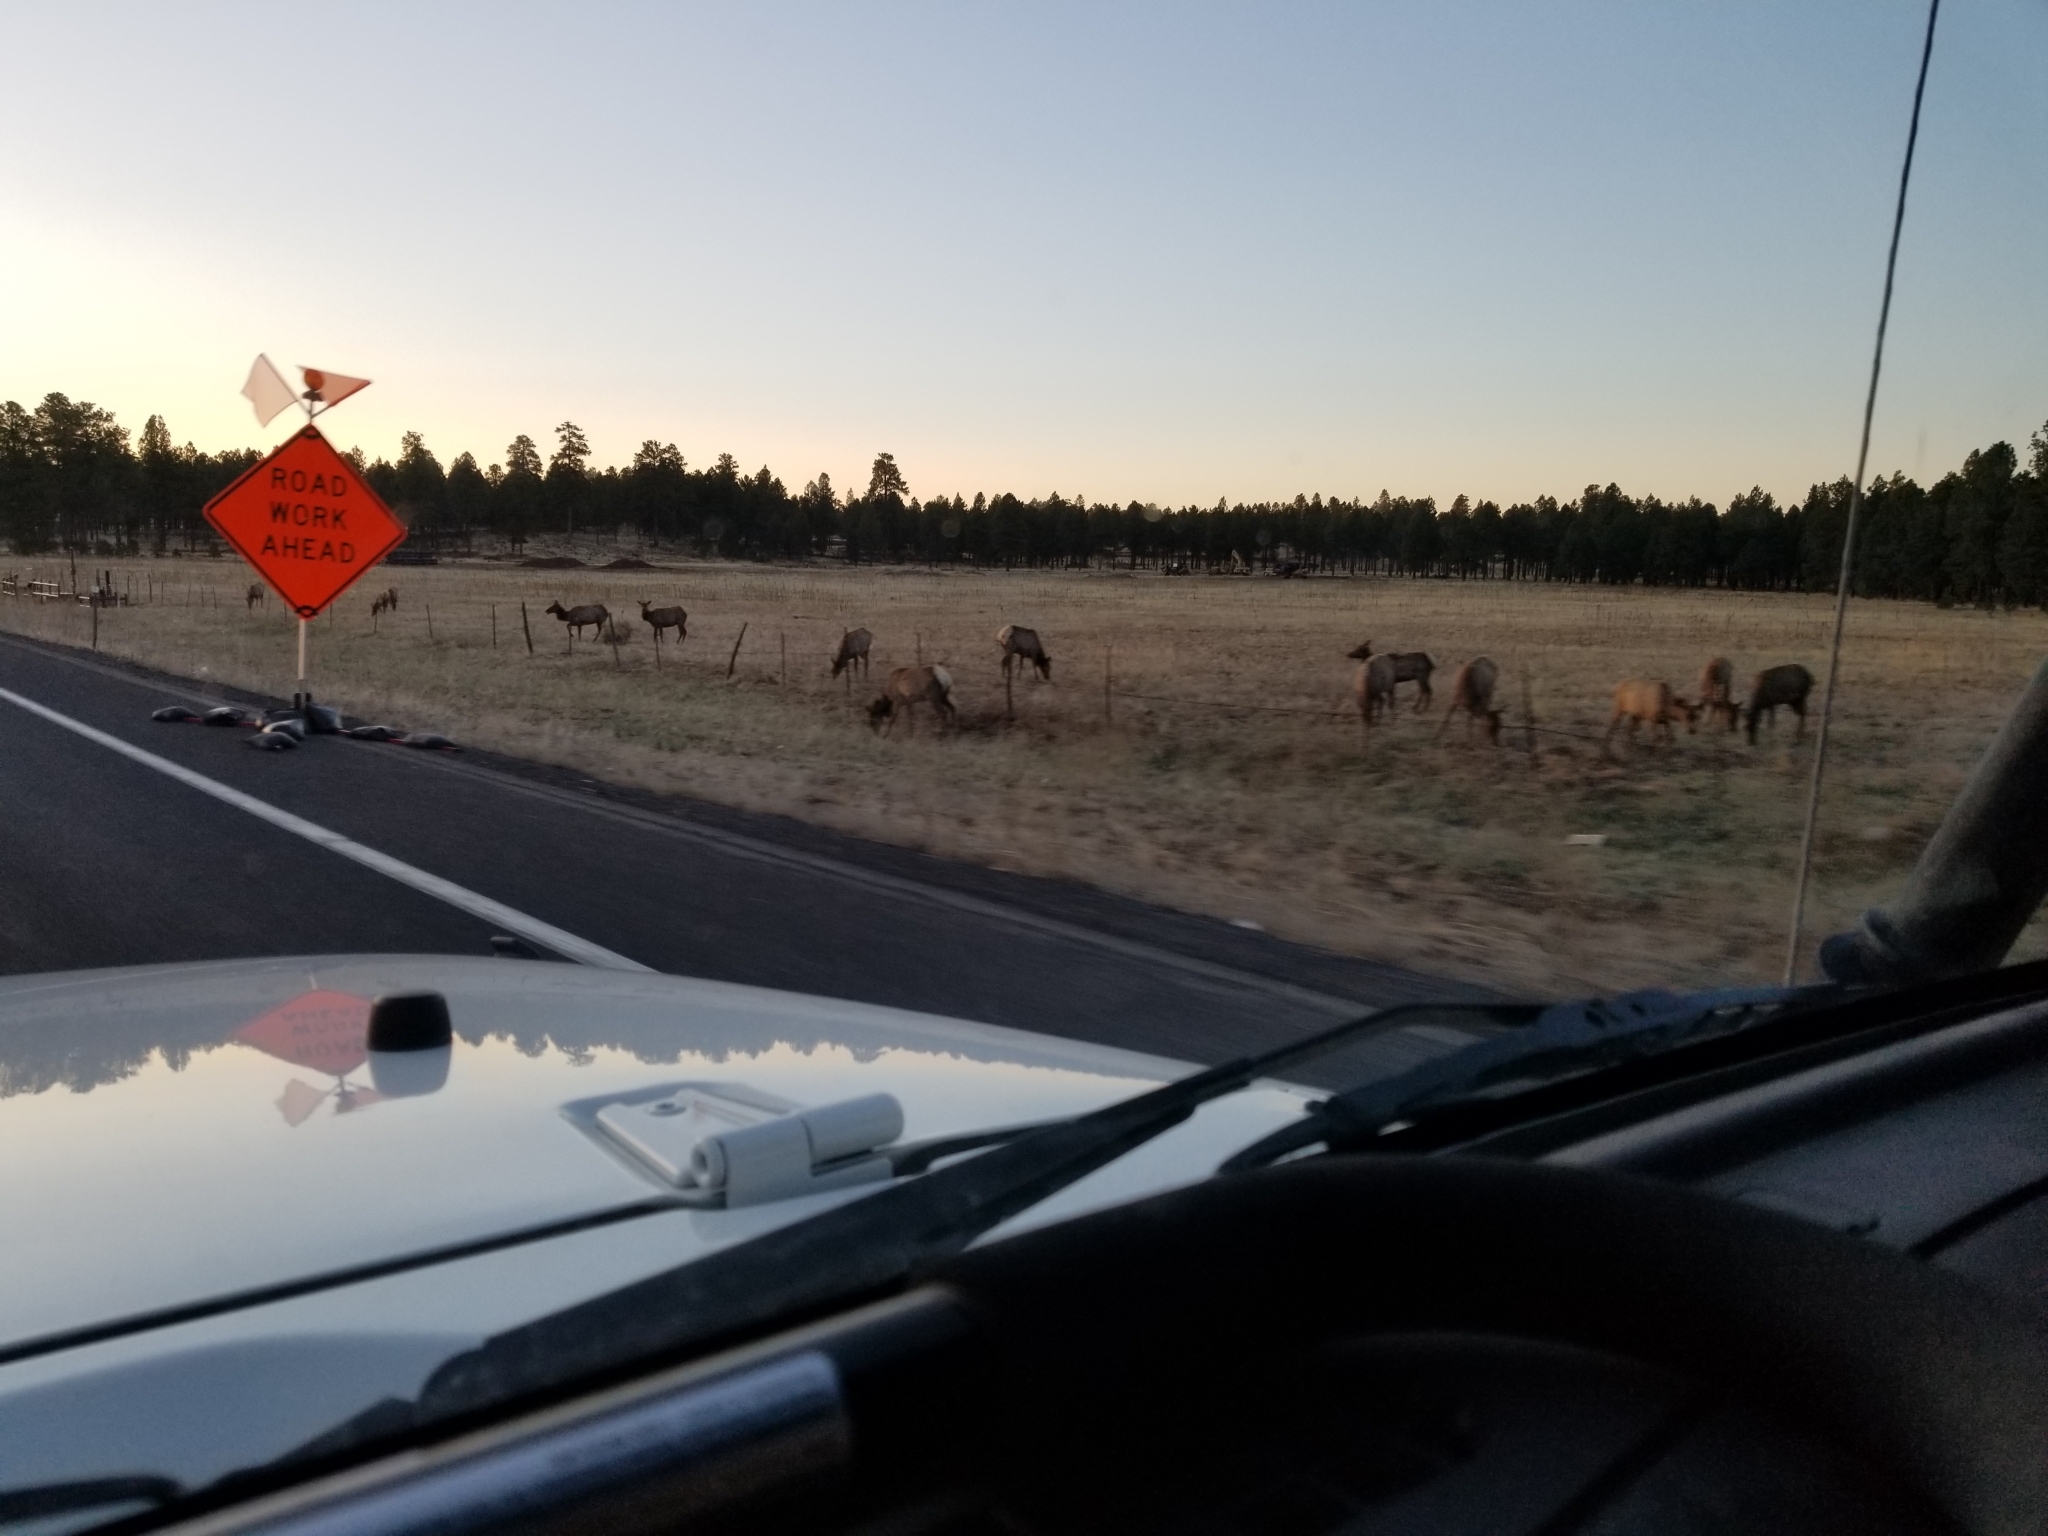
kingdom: Animalia
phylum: Chordata
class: Mammalia
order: Artiodactyla
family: Cervidae
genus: Cervus
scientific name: Cervus elaphus
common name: Red deer
